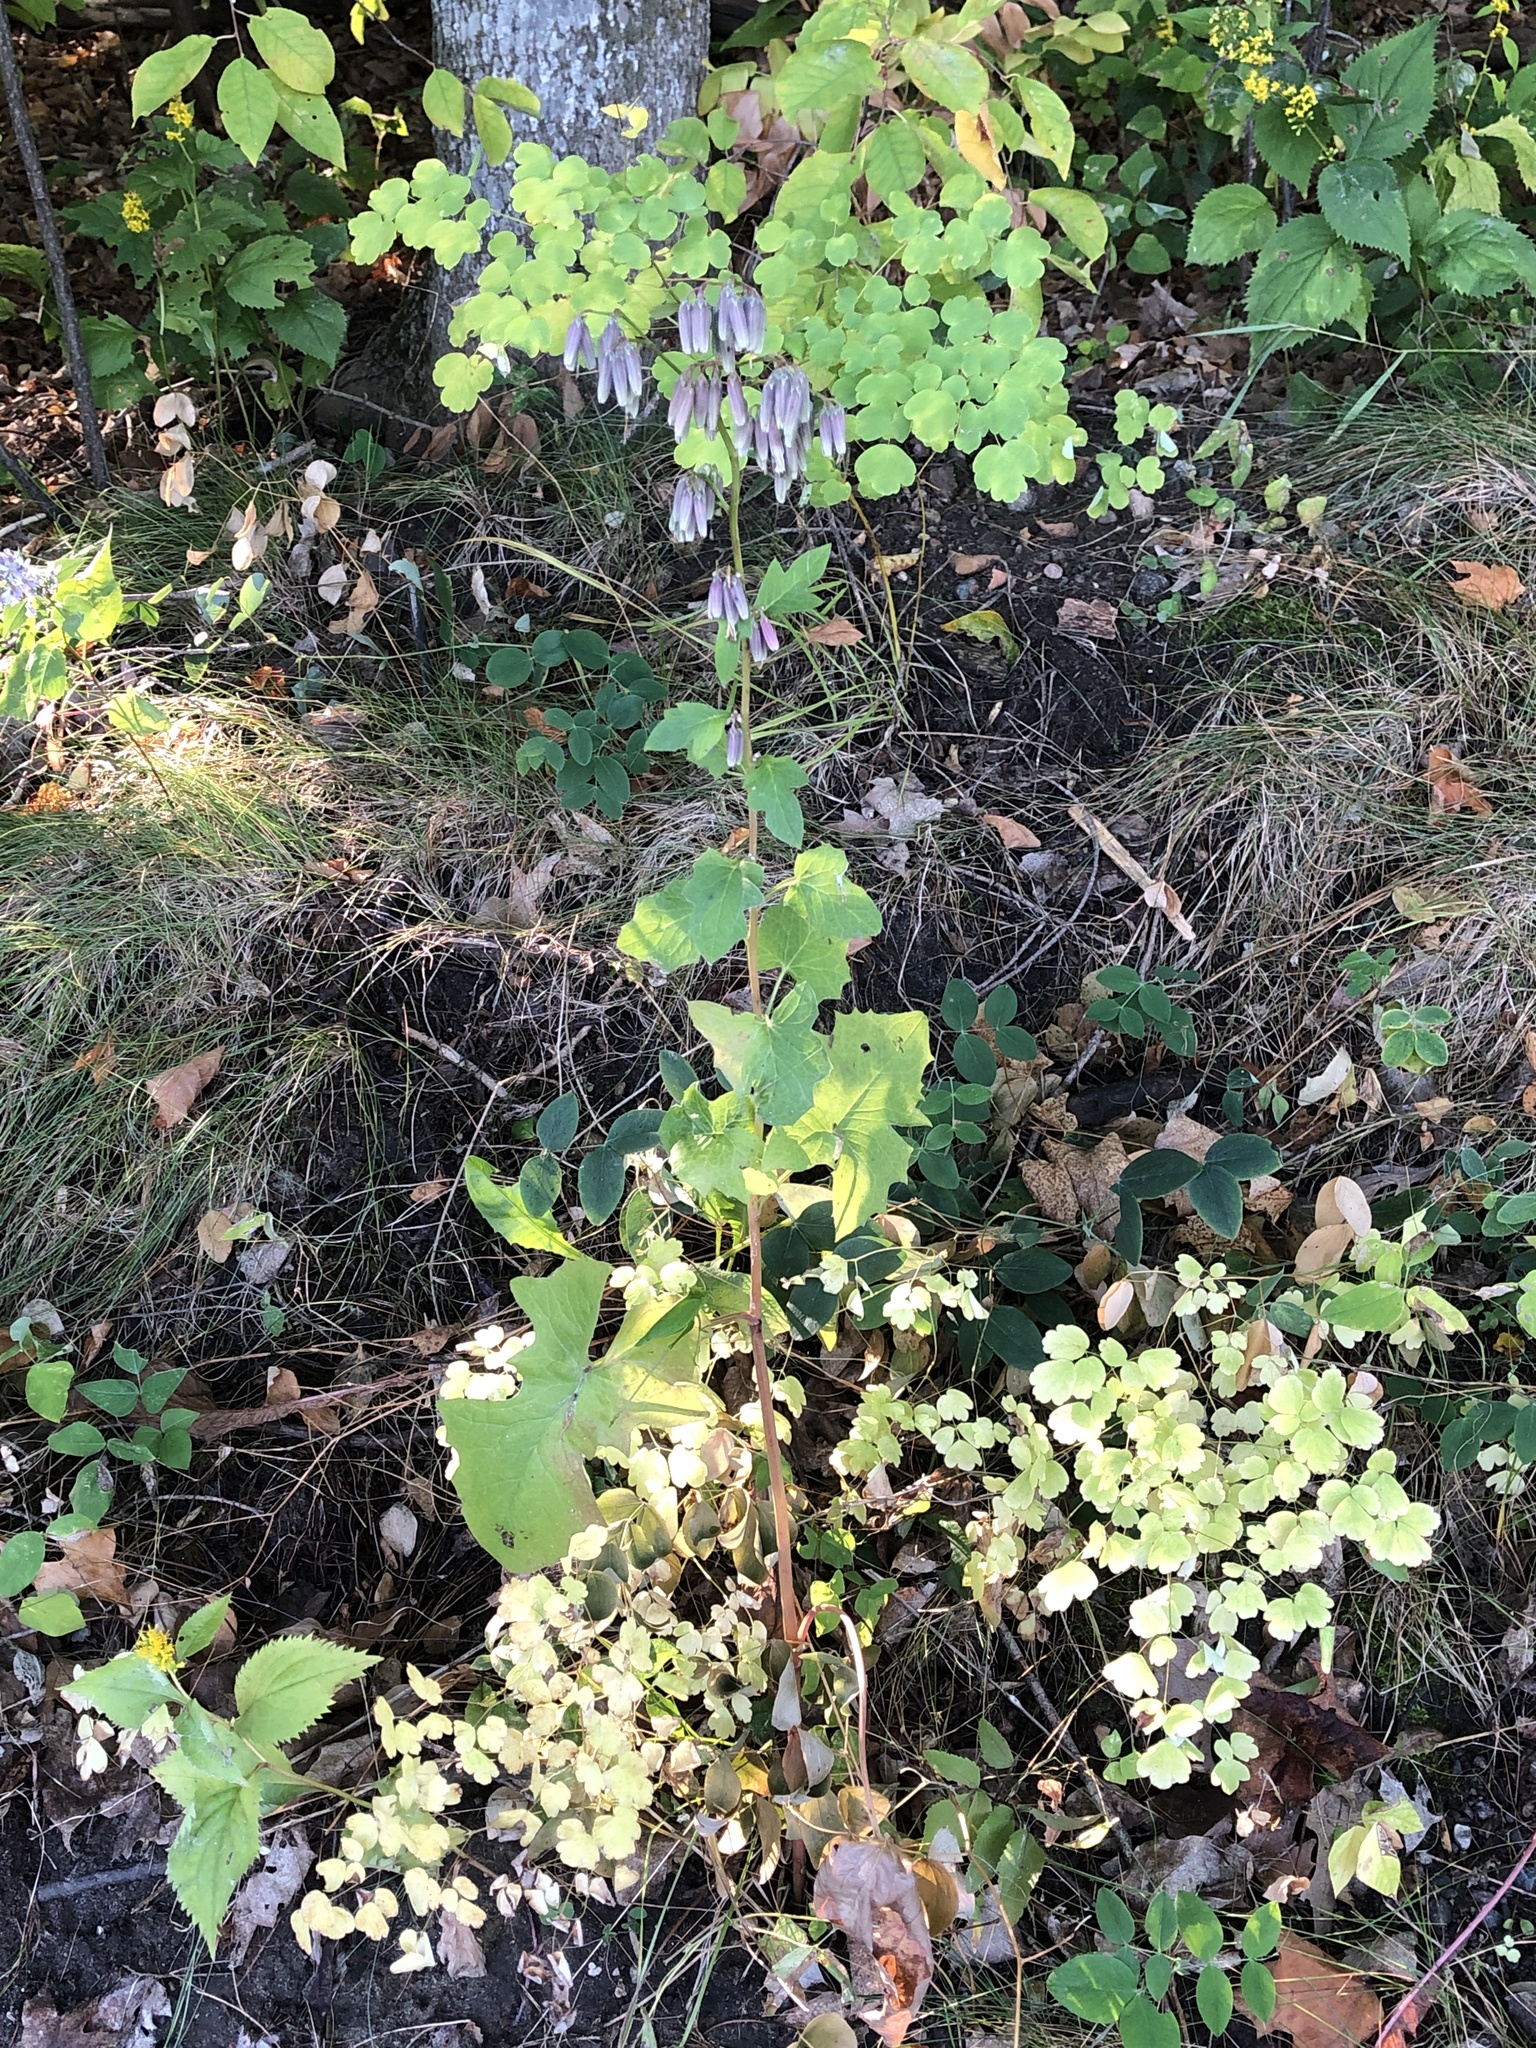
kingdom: Plantae
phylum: Tracheophyta
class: Magnoliopsida
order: Asterales
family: Asteraceae
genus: Nabalus
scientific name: Nabalus albus
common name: White rattlesnakeroot
